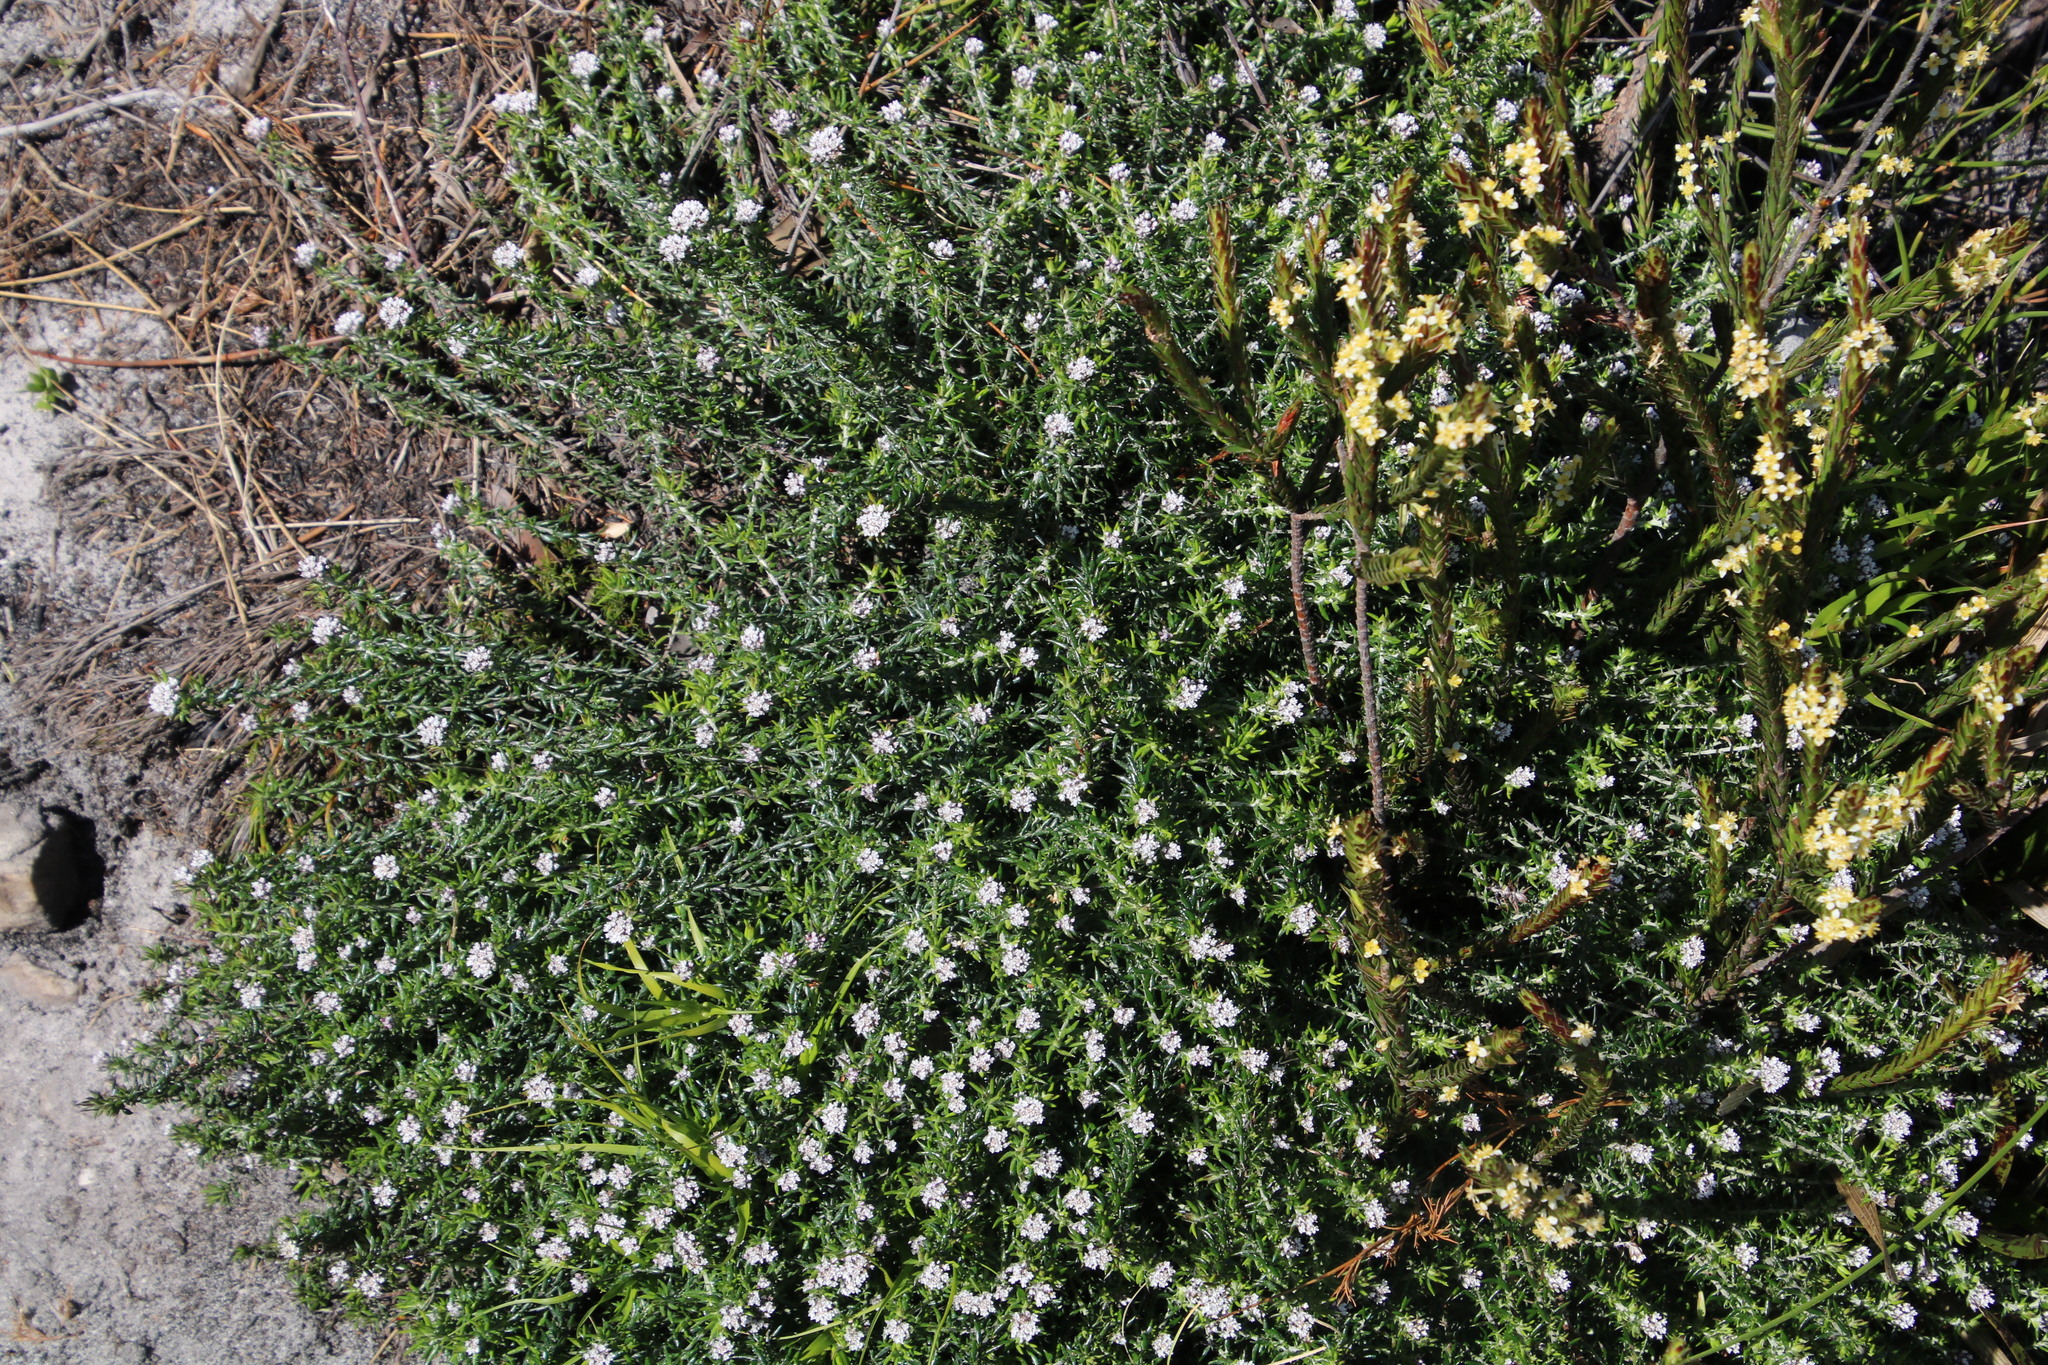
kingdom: Plantae
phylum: Tracheophyta
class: Magnoliopsida
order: Asterales
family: Asteraceae
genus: Metalasia
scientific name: Metalasia divergens
